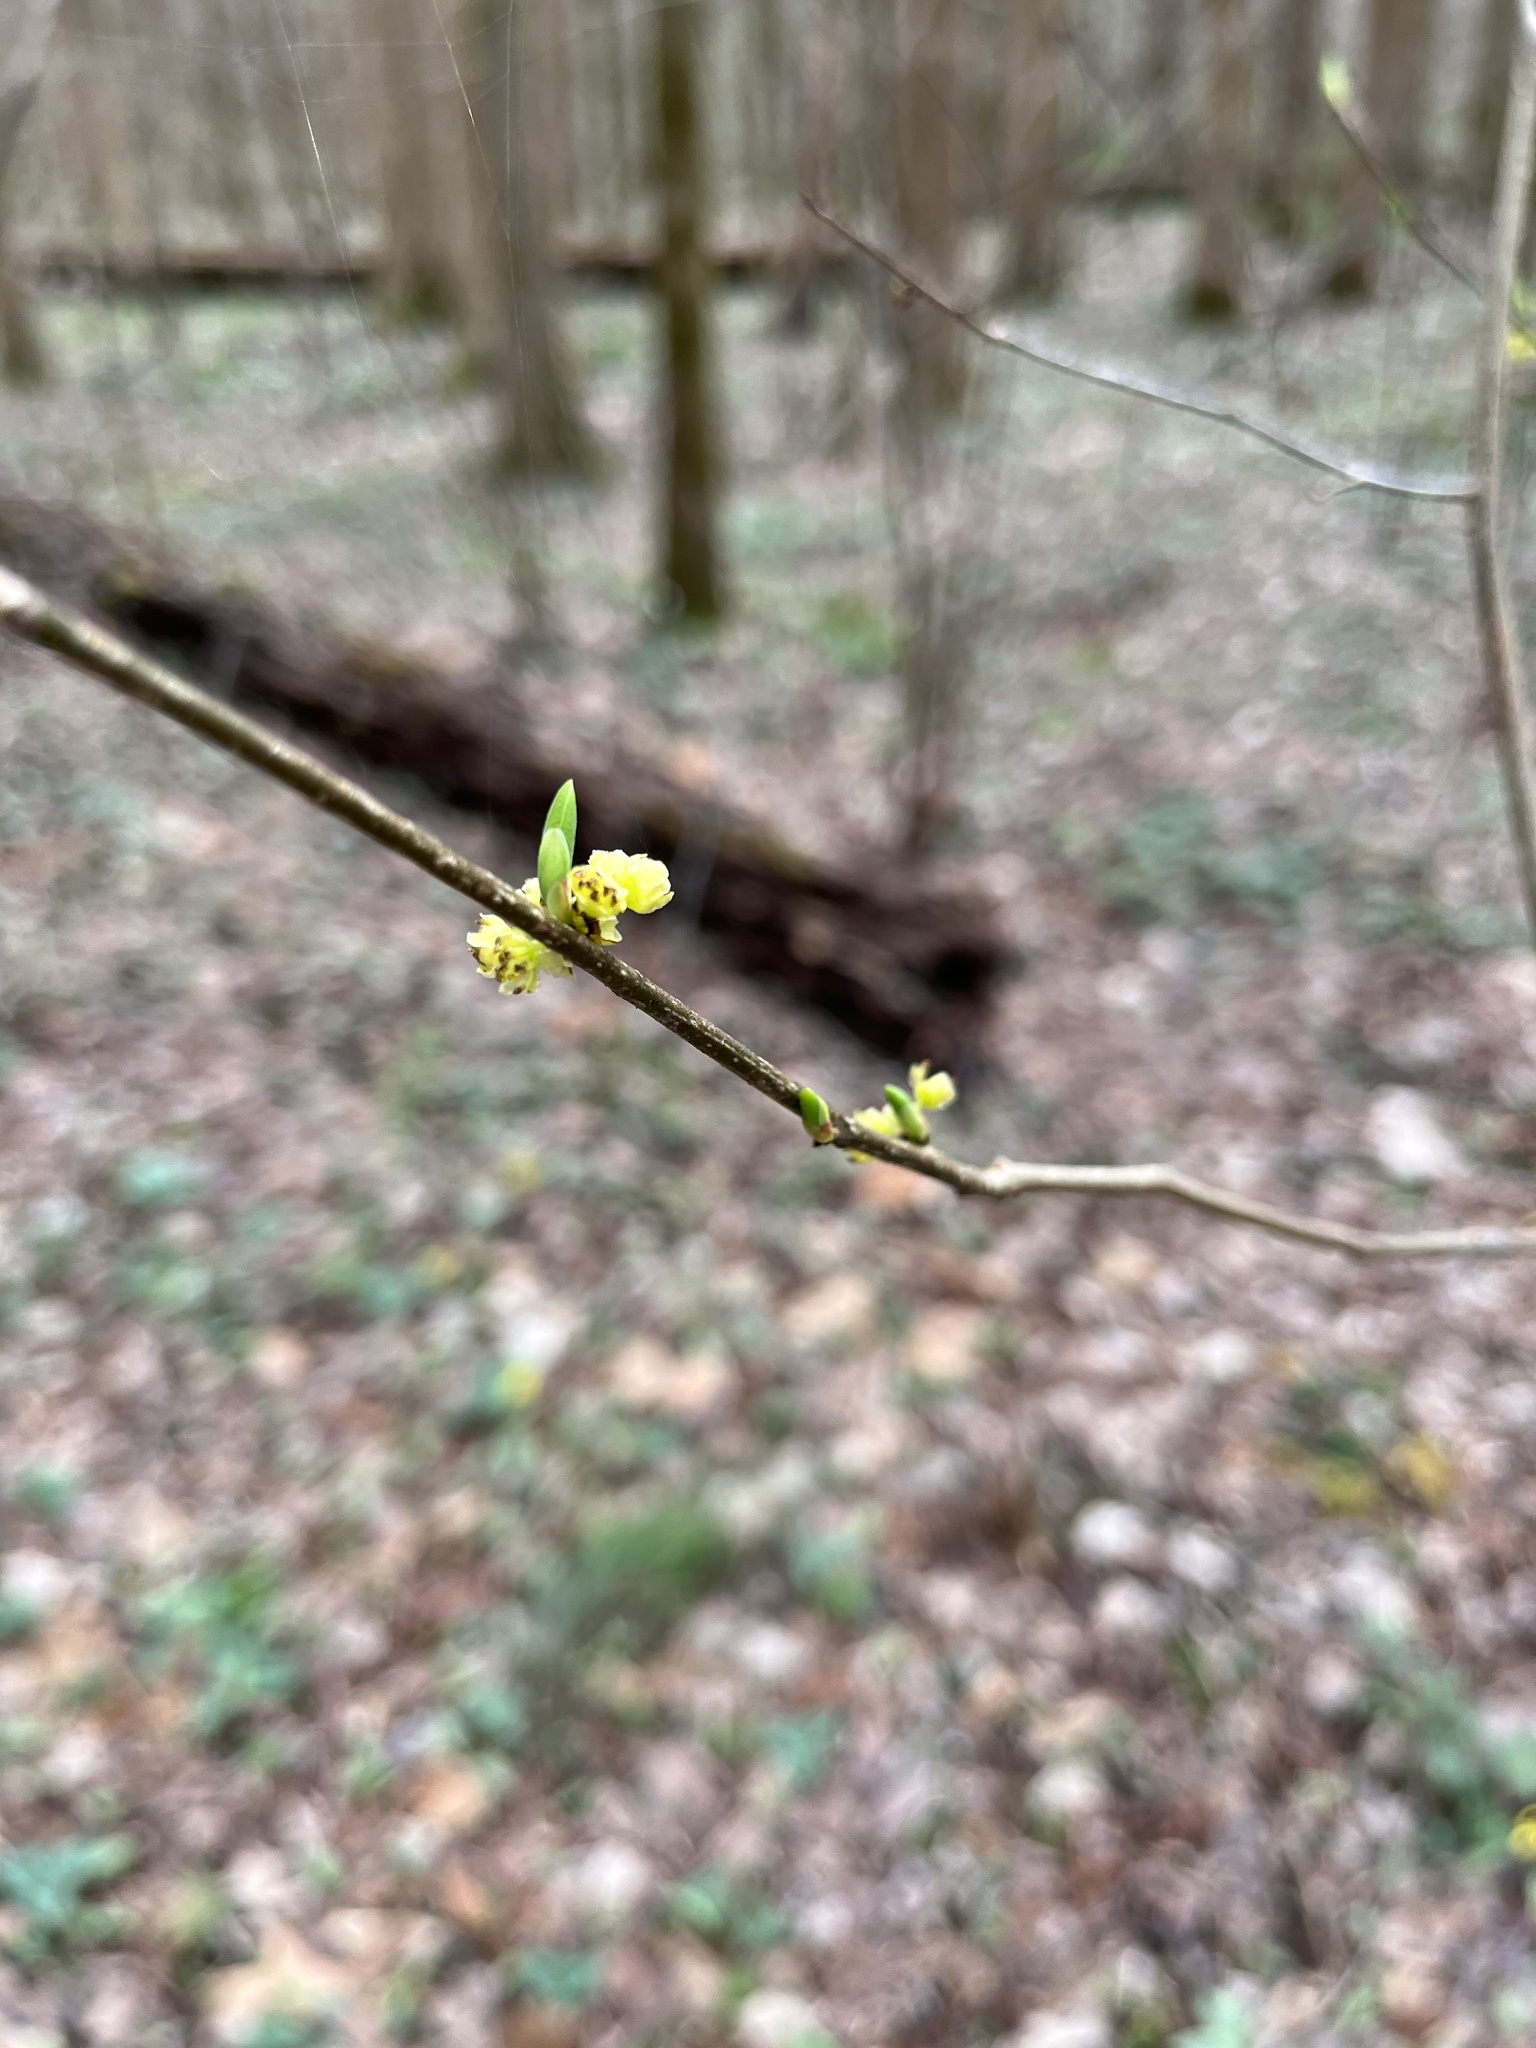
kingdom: Plantae
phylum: Tracheophyta
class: Magnoliopsida
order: Laurales
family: Lauraceae
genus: Lindera
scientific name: Lindera benzoin
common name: Spicebush
